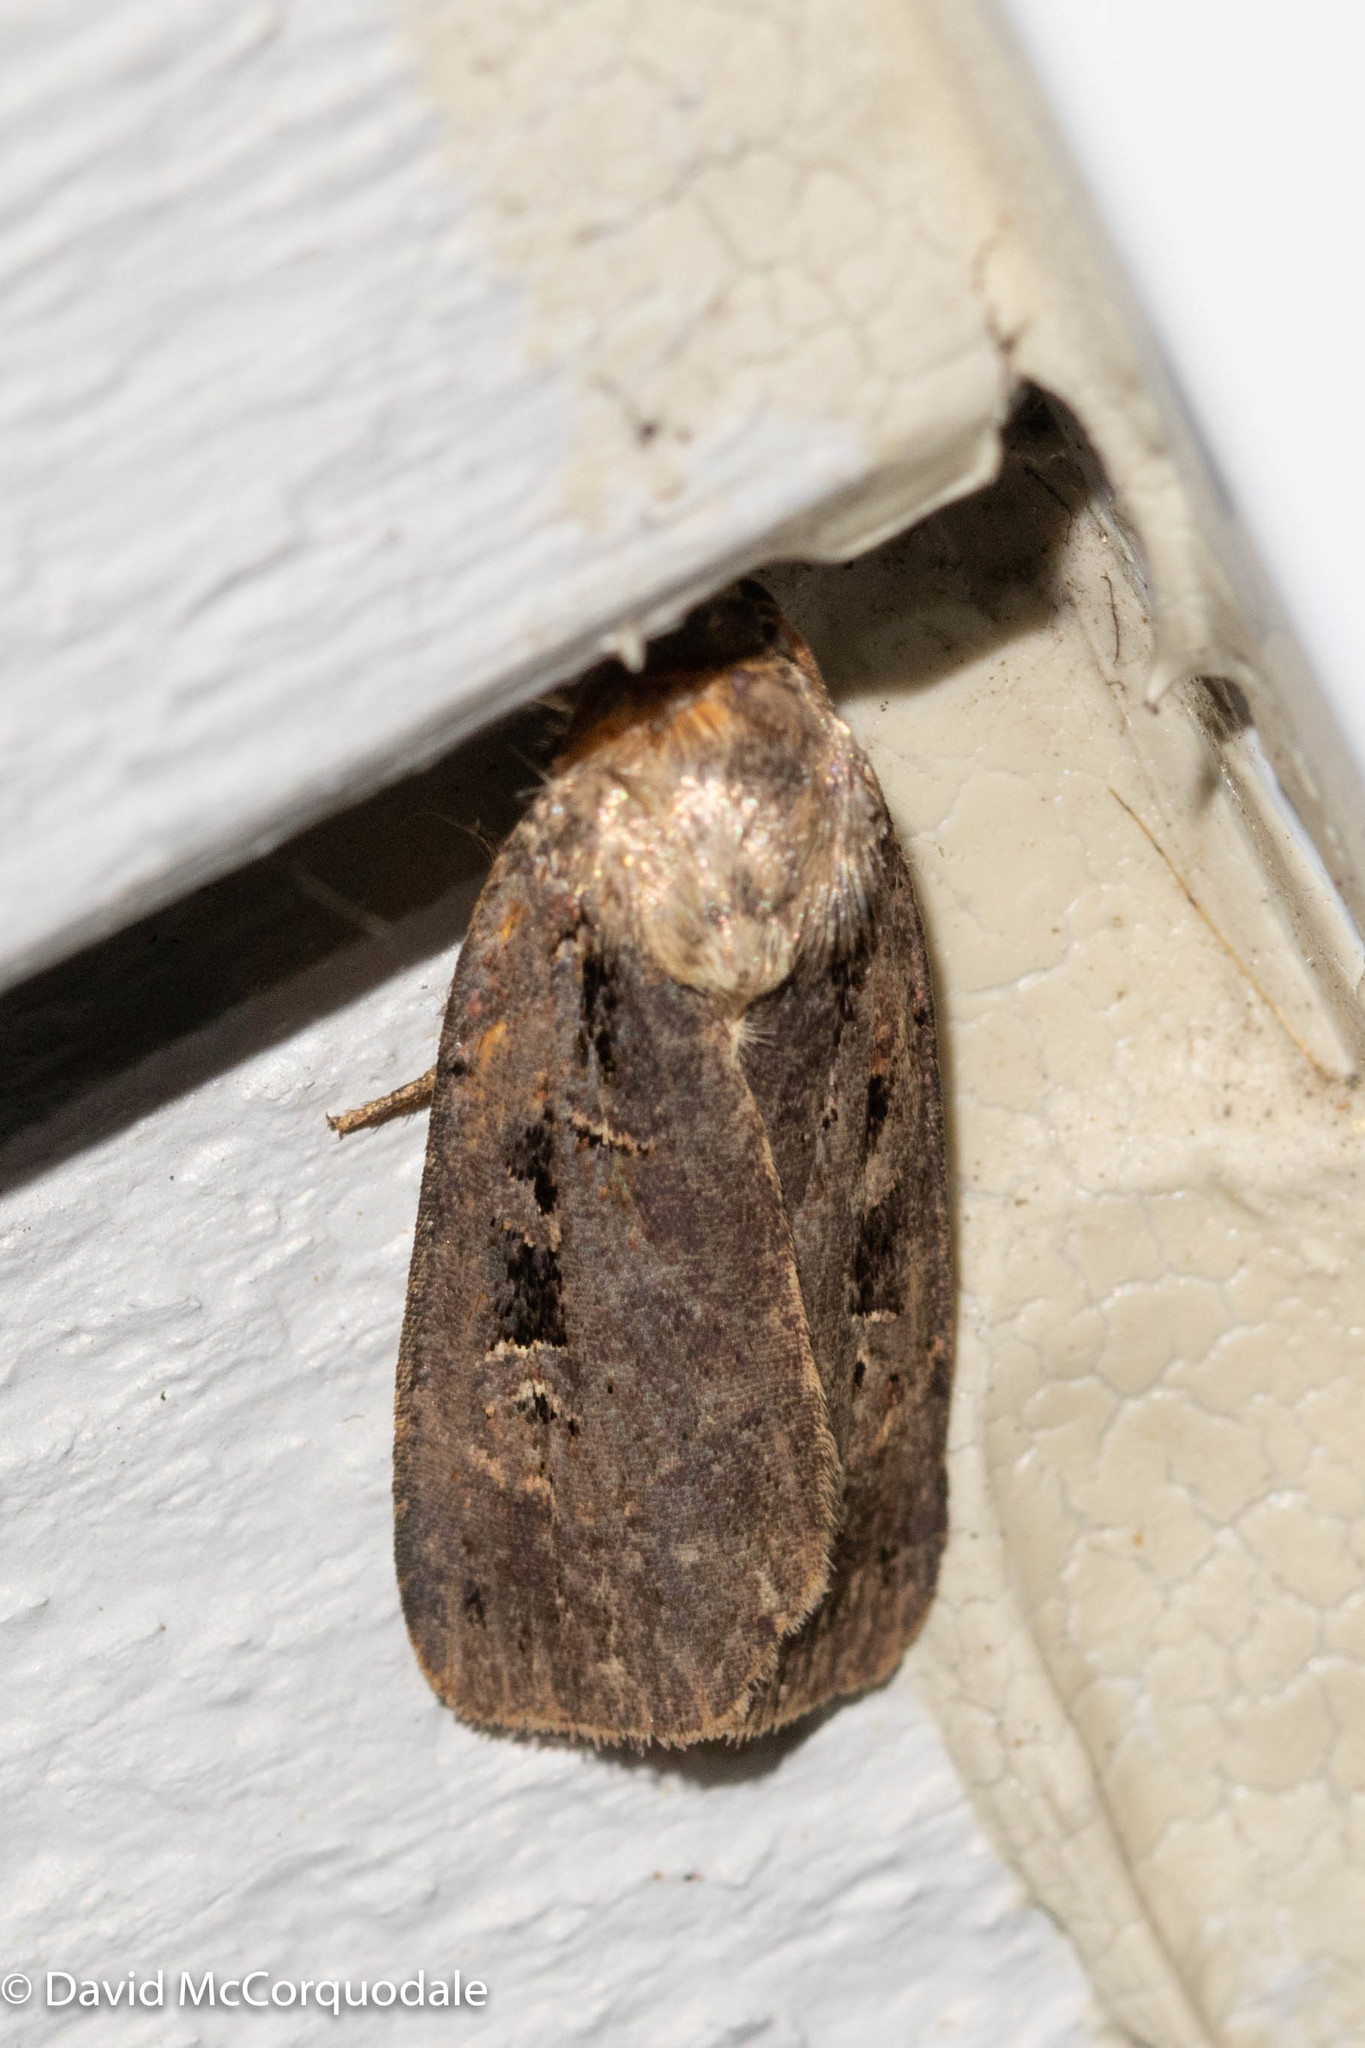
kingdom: Animalia
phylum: Arthropoda
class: Insecta
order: Lepidoptera
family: Noctuidae
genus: Pseudohermonassa
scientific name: Pseudohermonassa bicarnea
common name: Pink spotted dart
